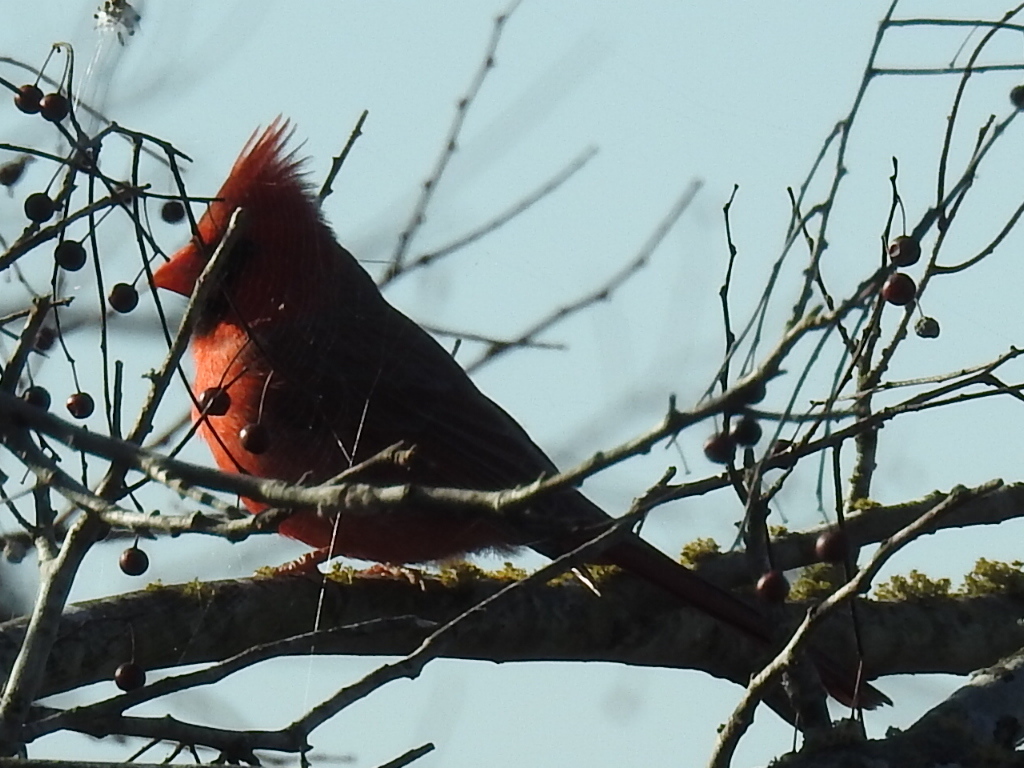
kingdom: Animalia
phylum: Chordata
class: Aves
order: Passeriformes
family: Cardinalidae
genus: Cardinalis
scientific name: Cardinalis cardinalis
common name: Northern cardinal
